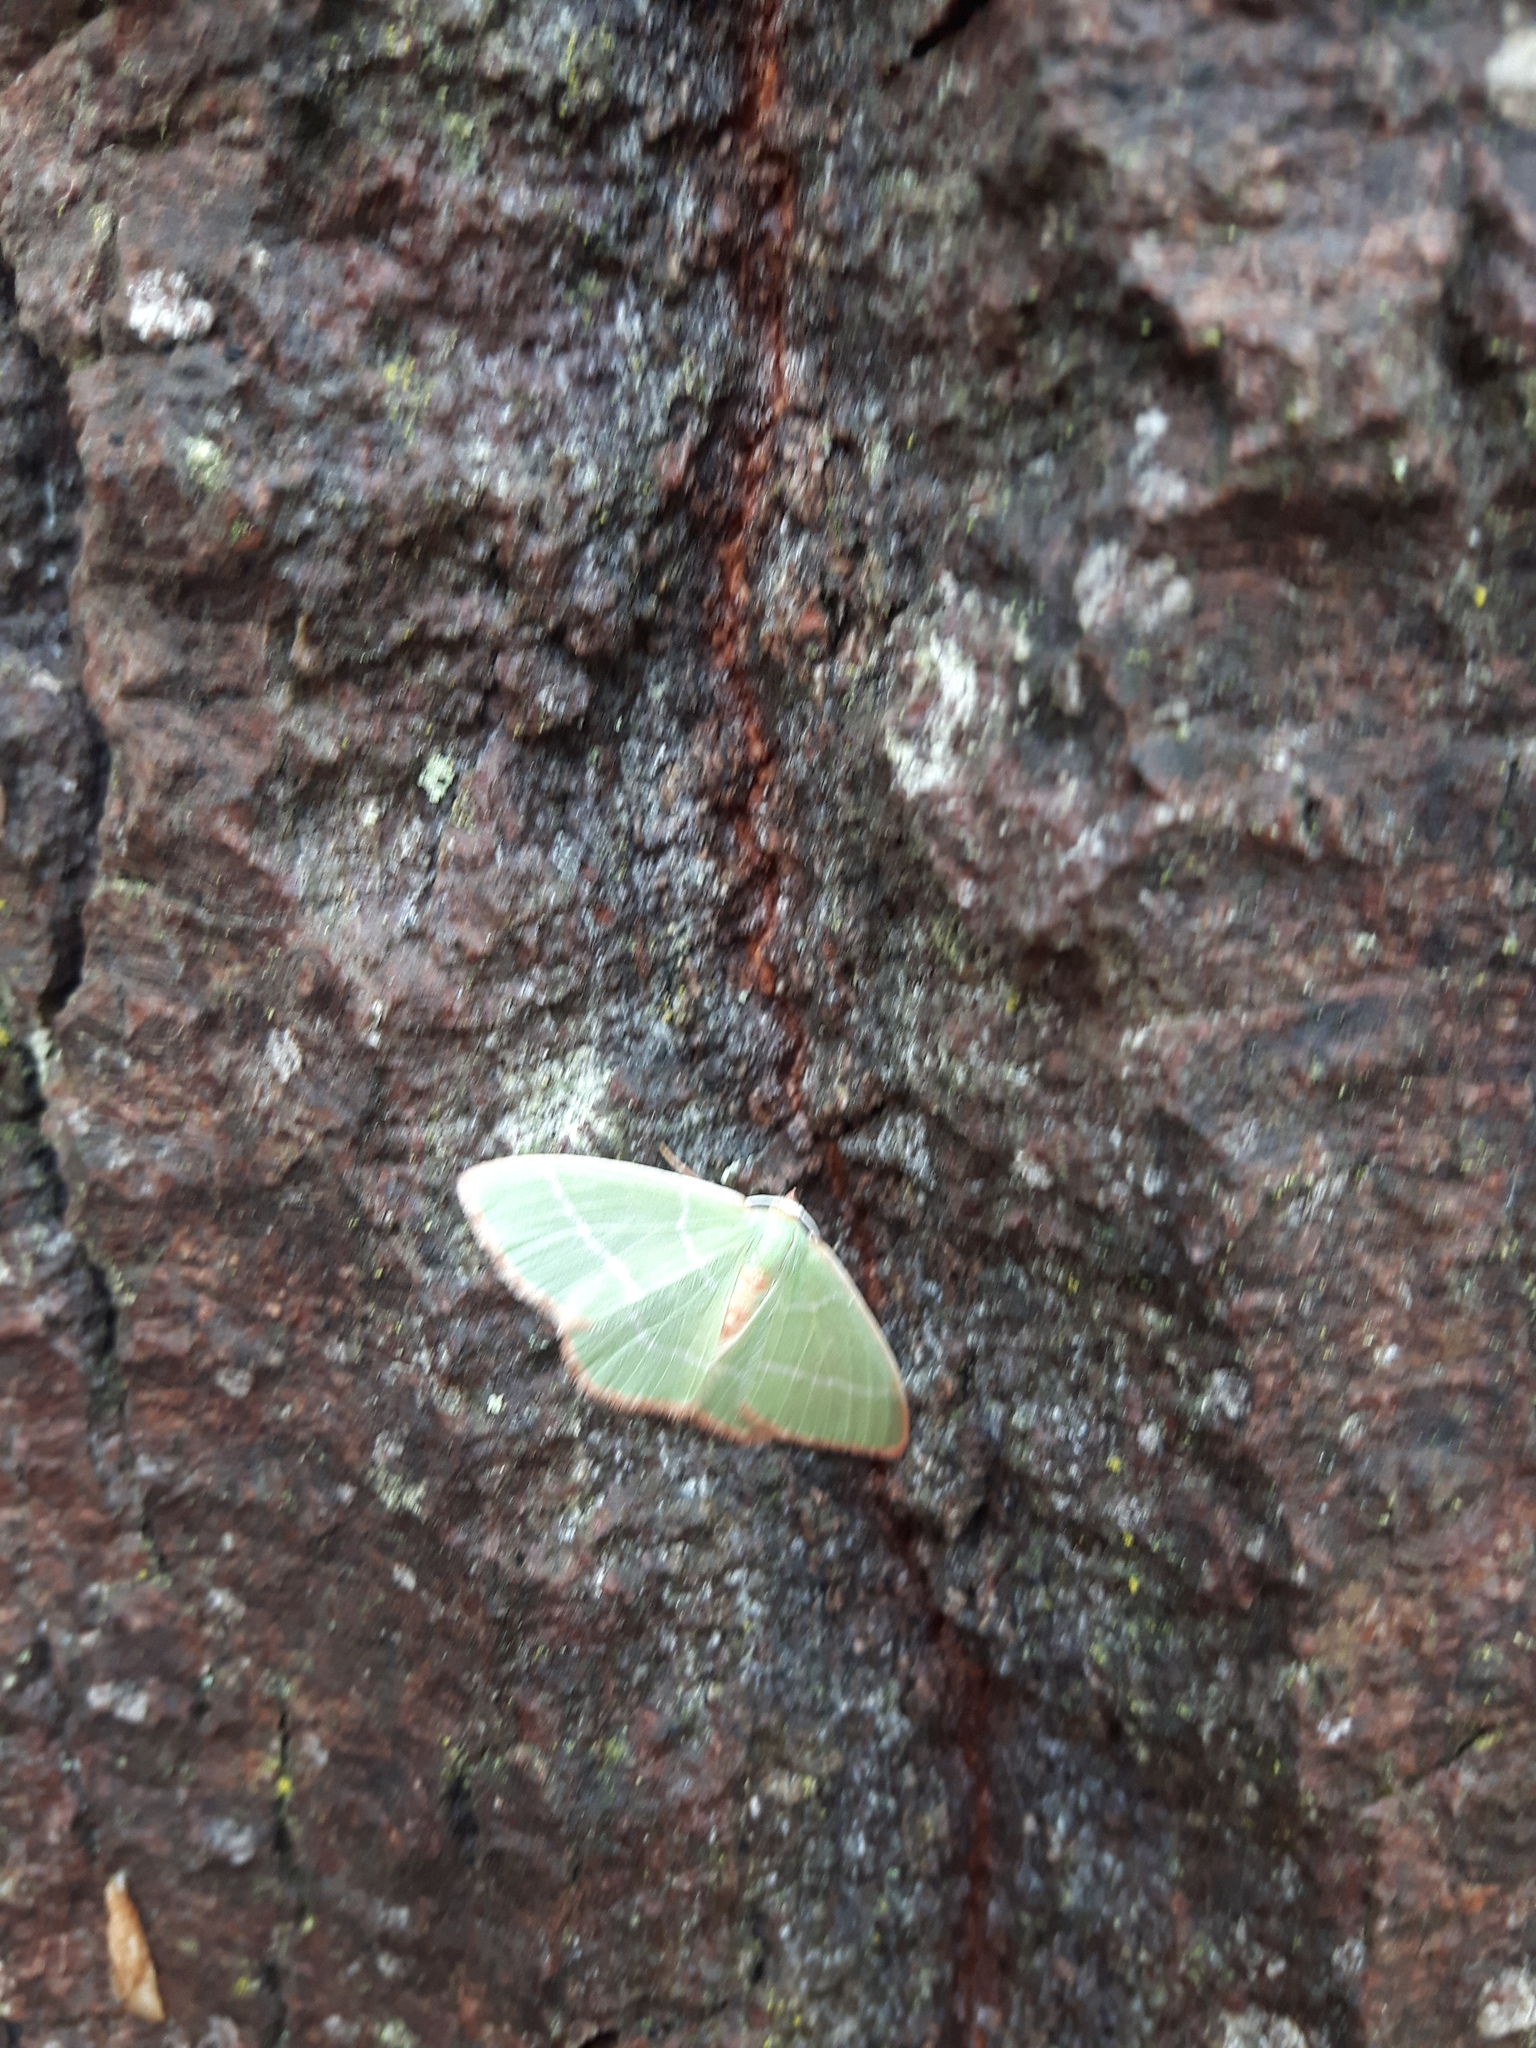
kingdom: Animalia
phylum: Arthropoda
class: Insecta
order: Lepidoptera
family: Geometridae
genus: Nemoria
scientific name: Nemoria bistriaria
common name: Red-fringed emerald
